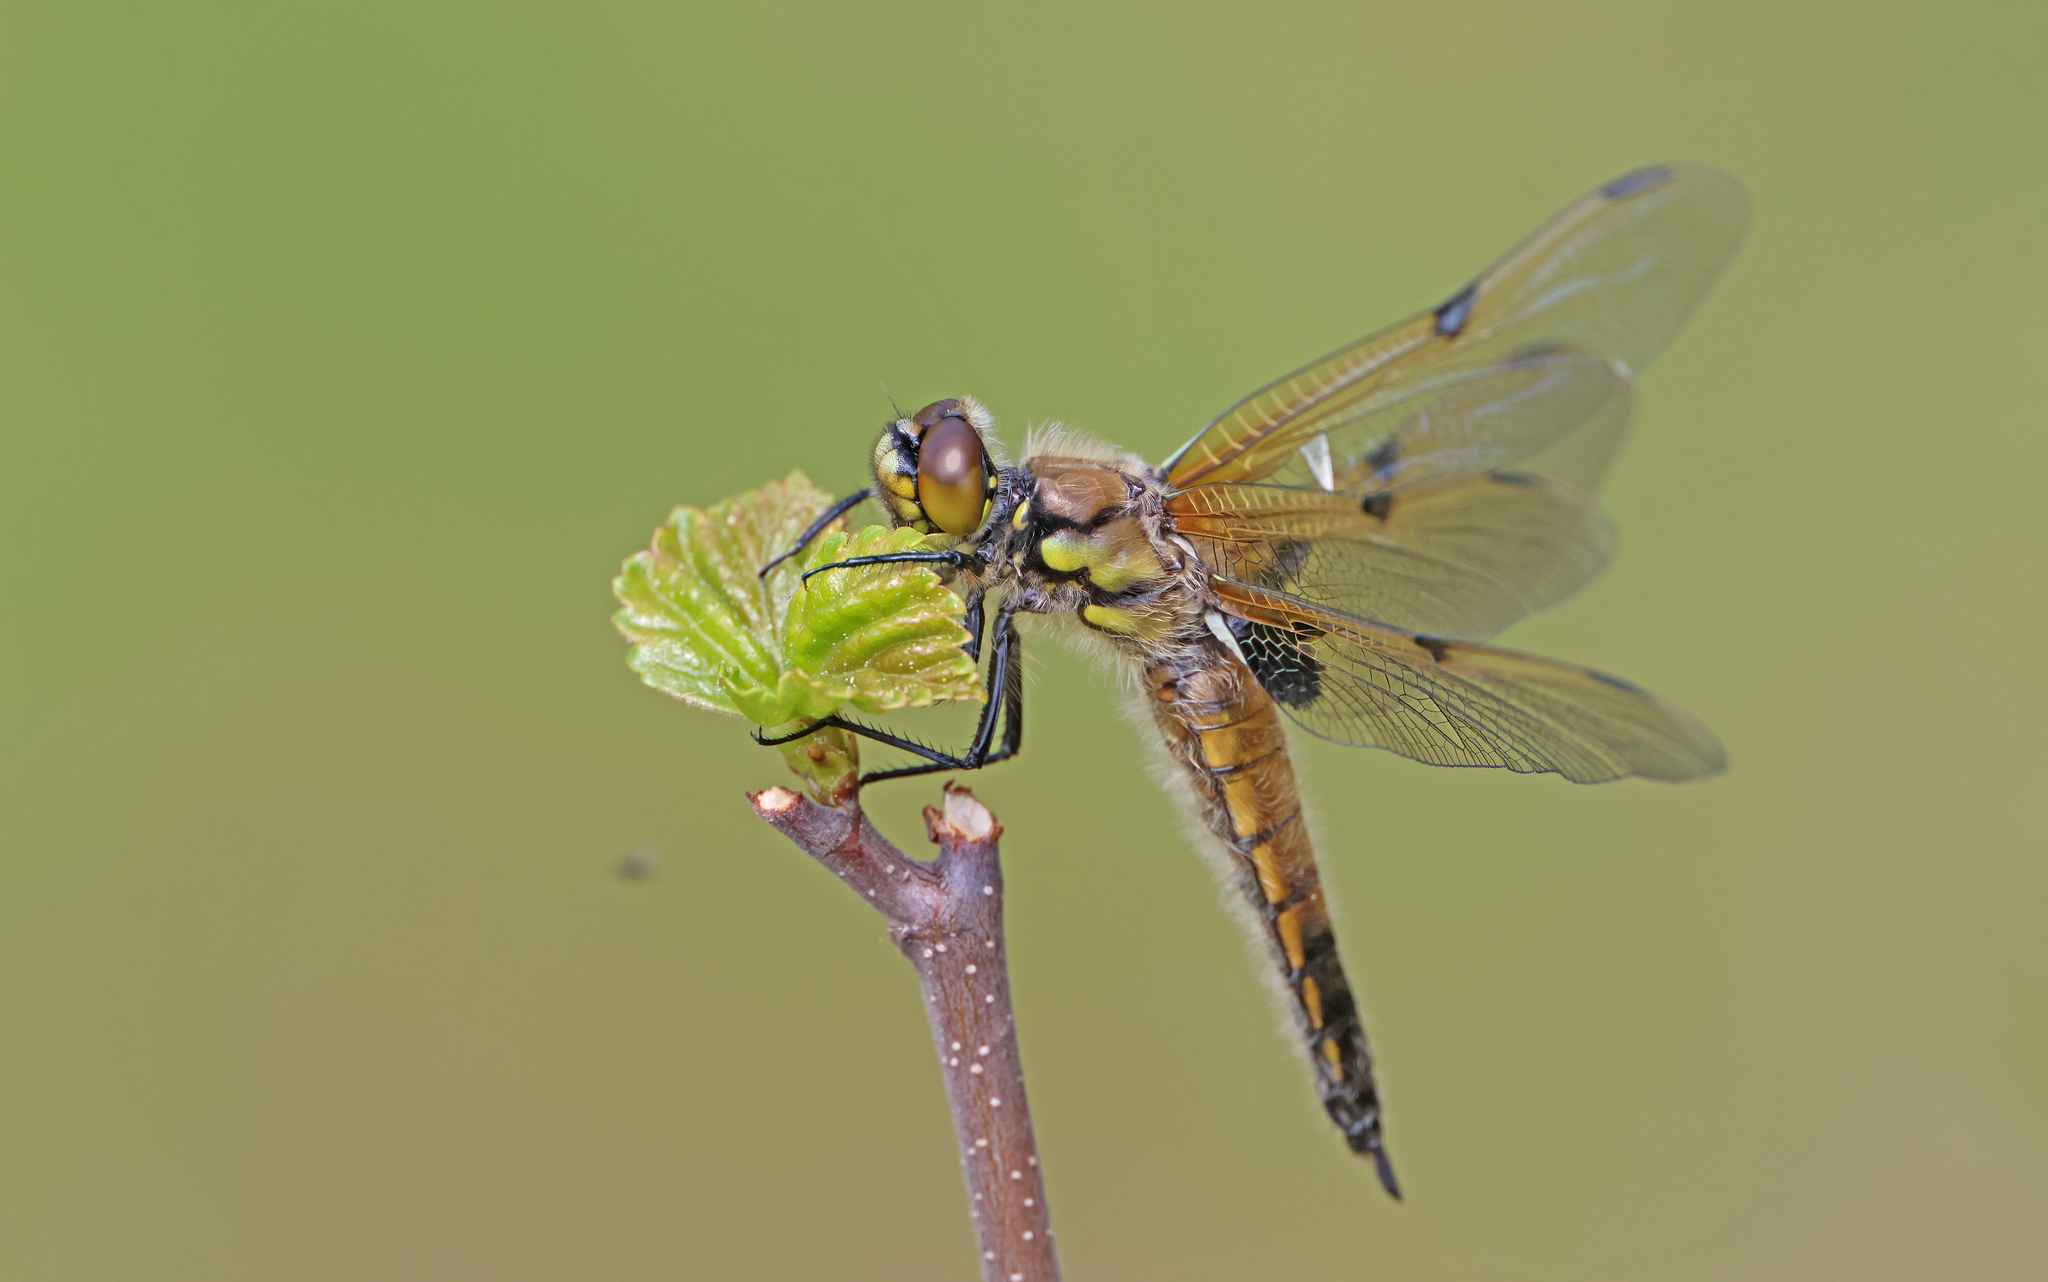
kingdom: Animalia
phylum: Arthropoda
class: Insecta
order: Odonata
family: Libellulidae
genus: Libellula
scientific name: Libellula quadrimaculata
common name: Four-spotted chaser
